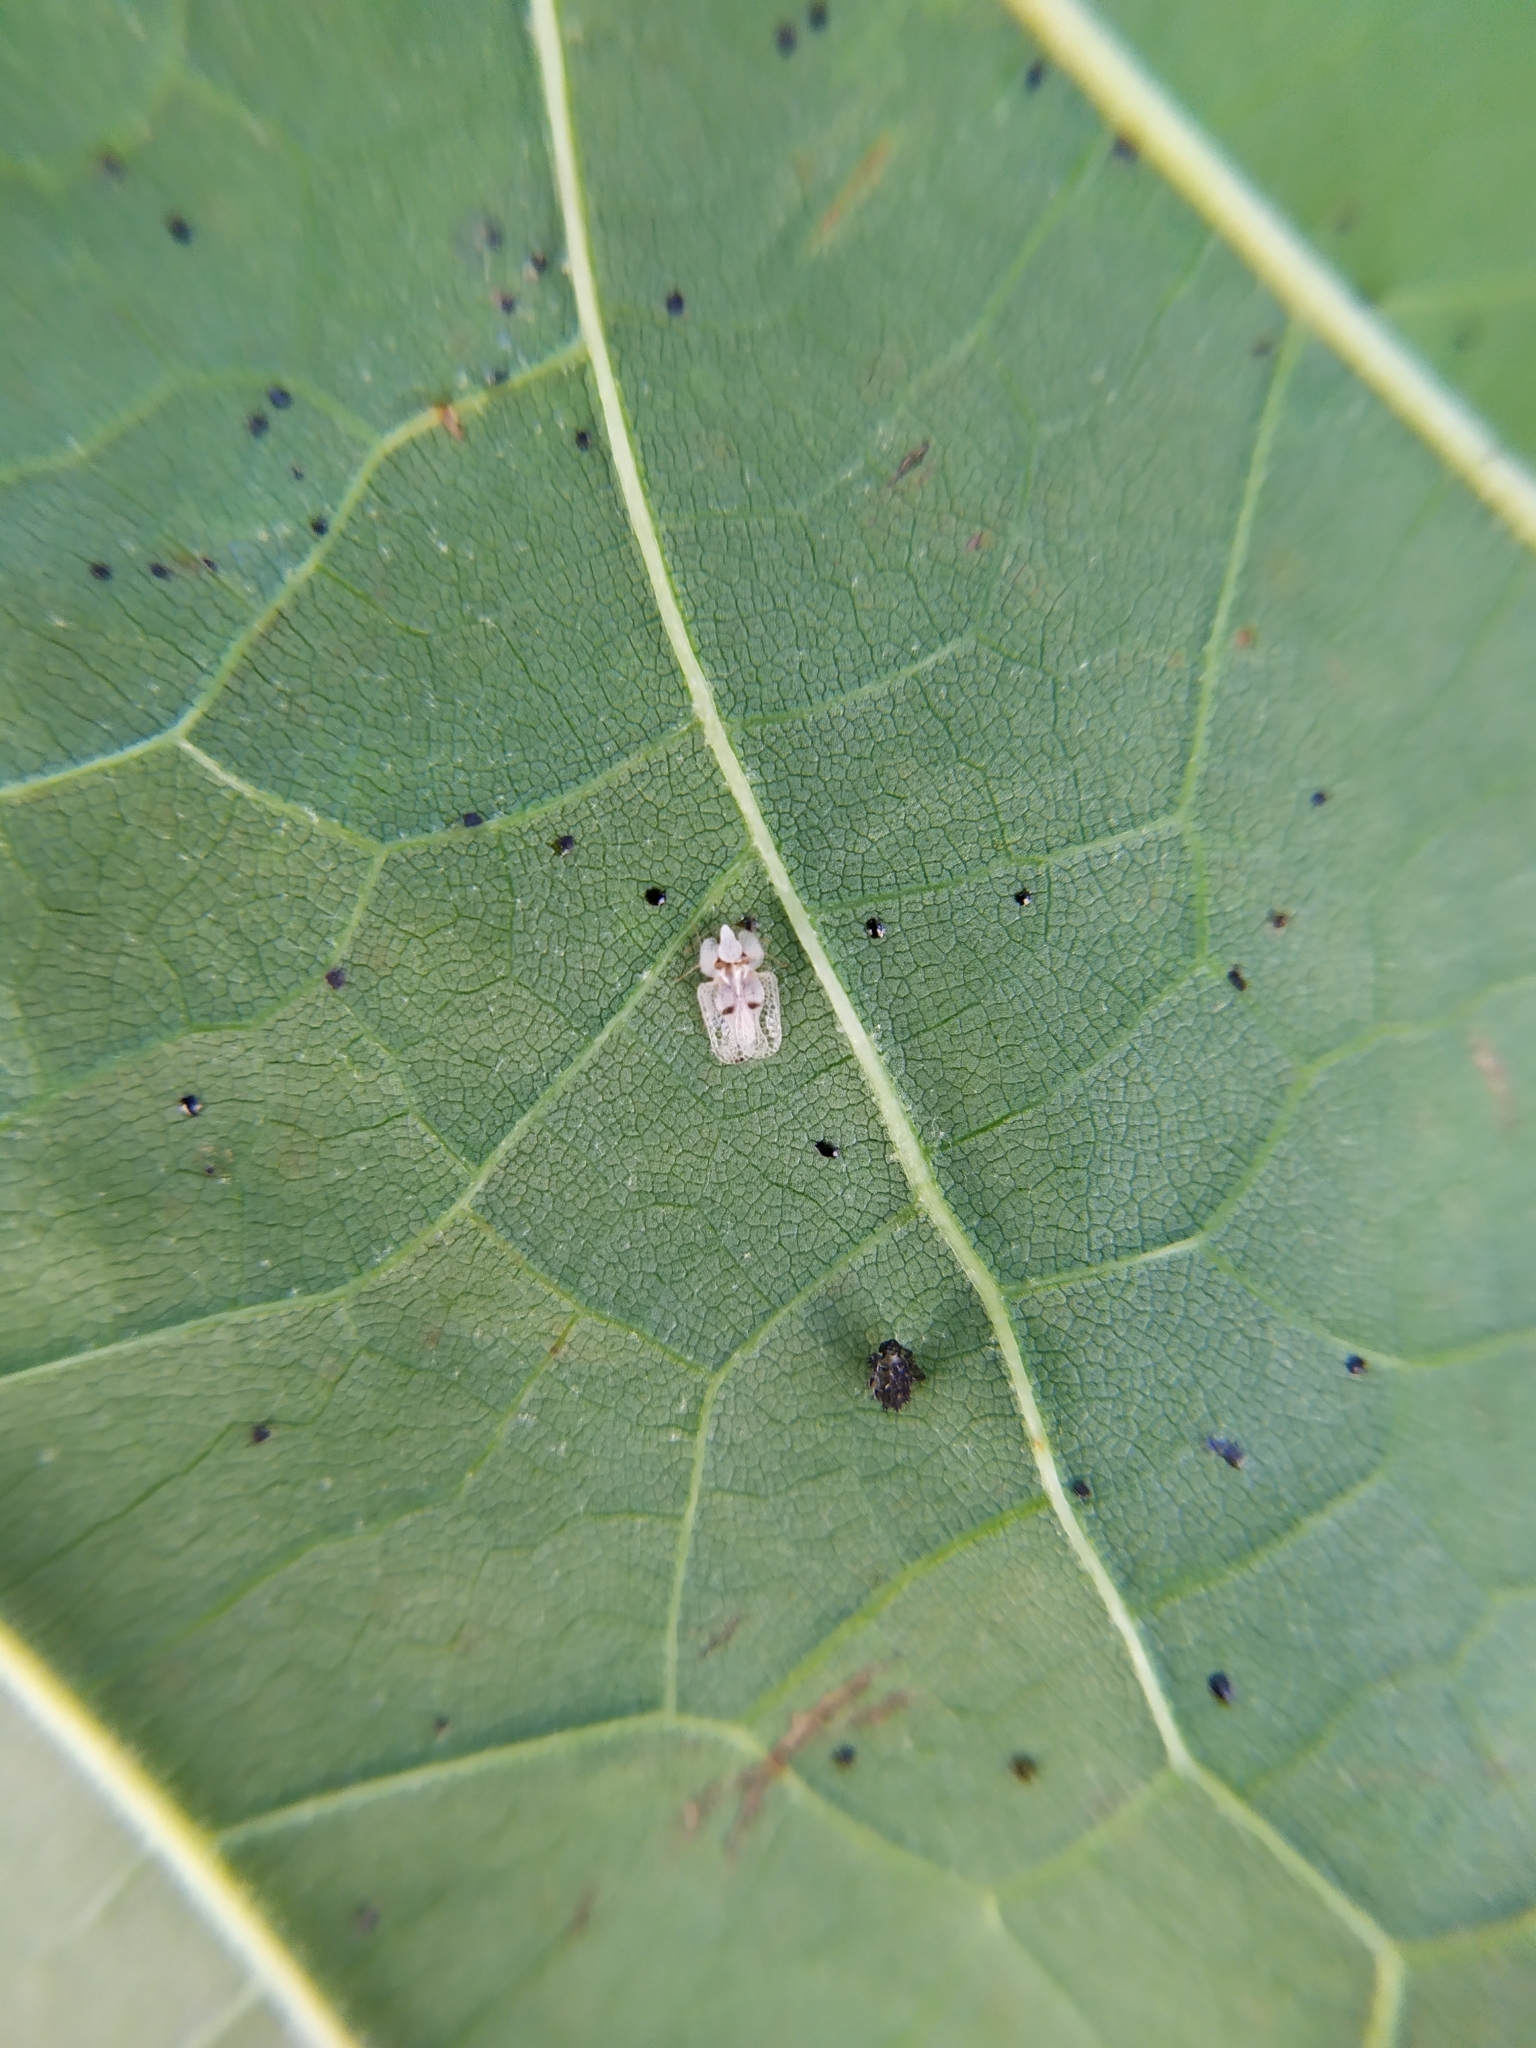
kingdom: Animalia
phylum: Arthropoda
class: Insecta
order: Hemiptera
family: Tingidae
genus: Corythucha
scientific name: Corythucha ciliata
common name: Sycamore lace bug
